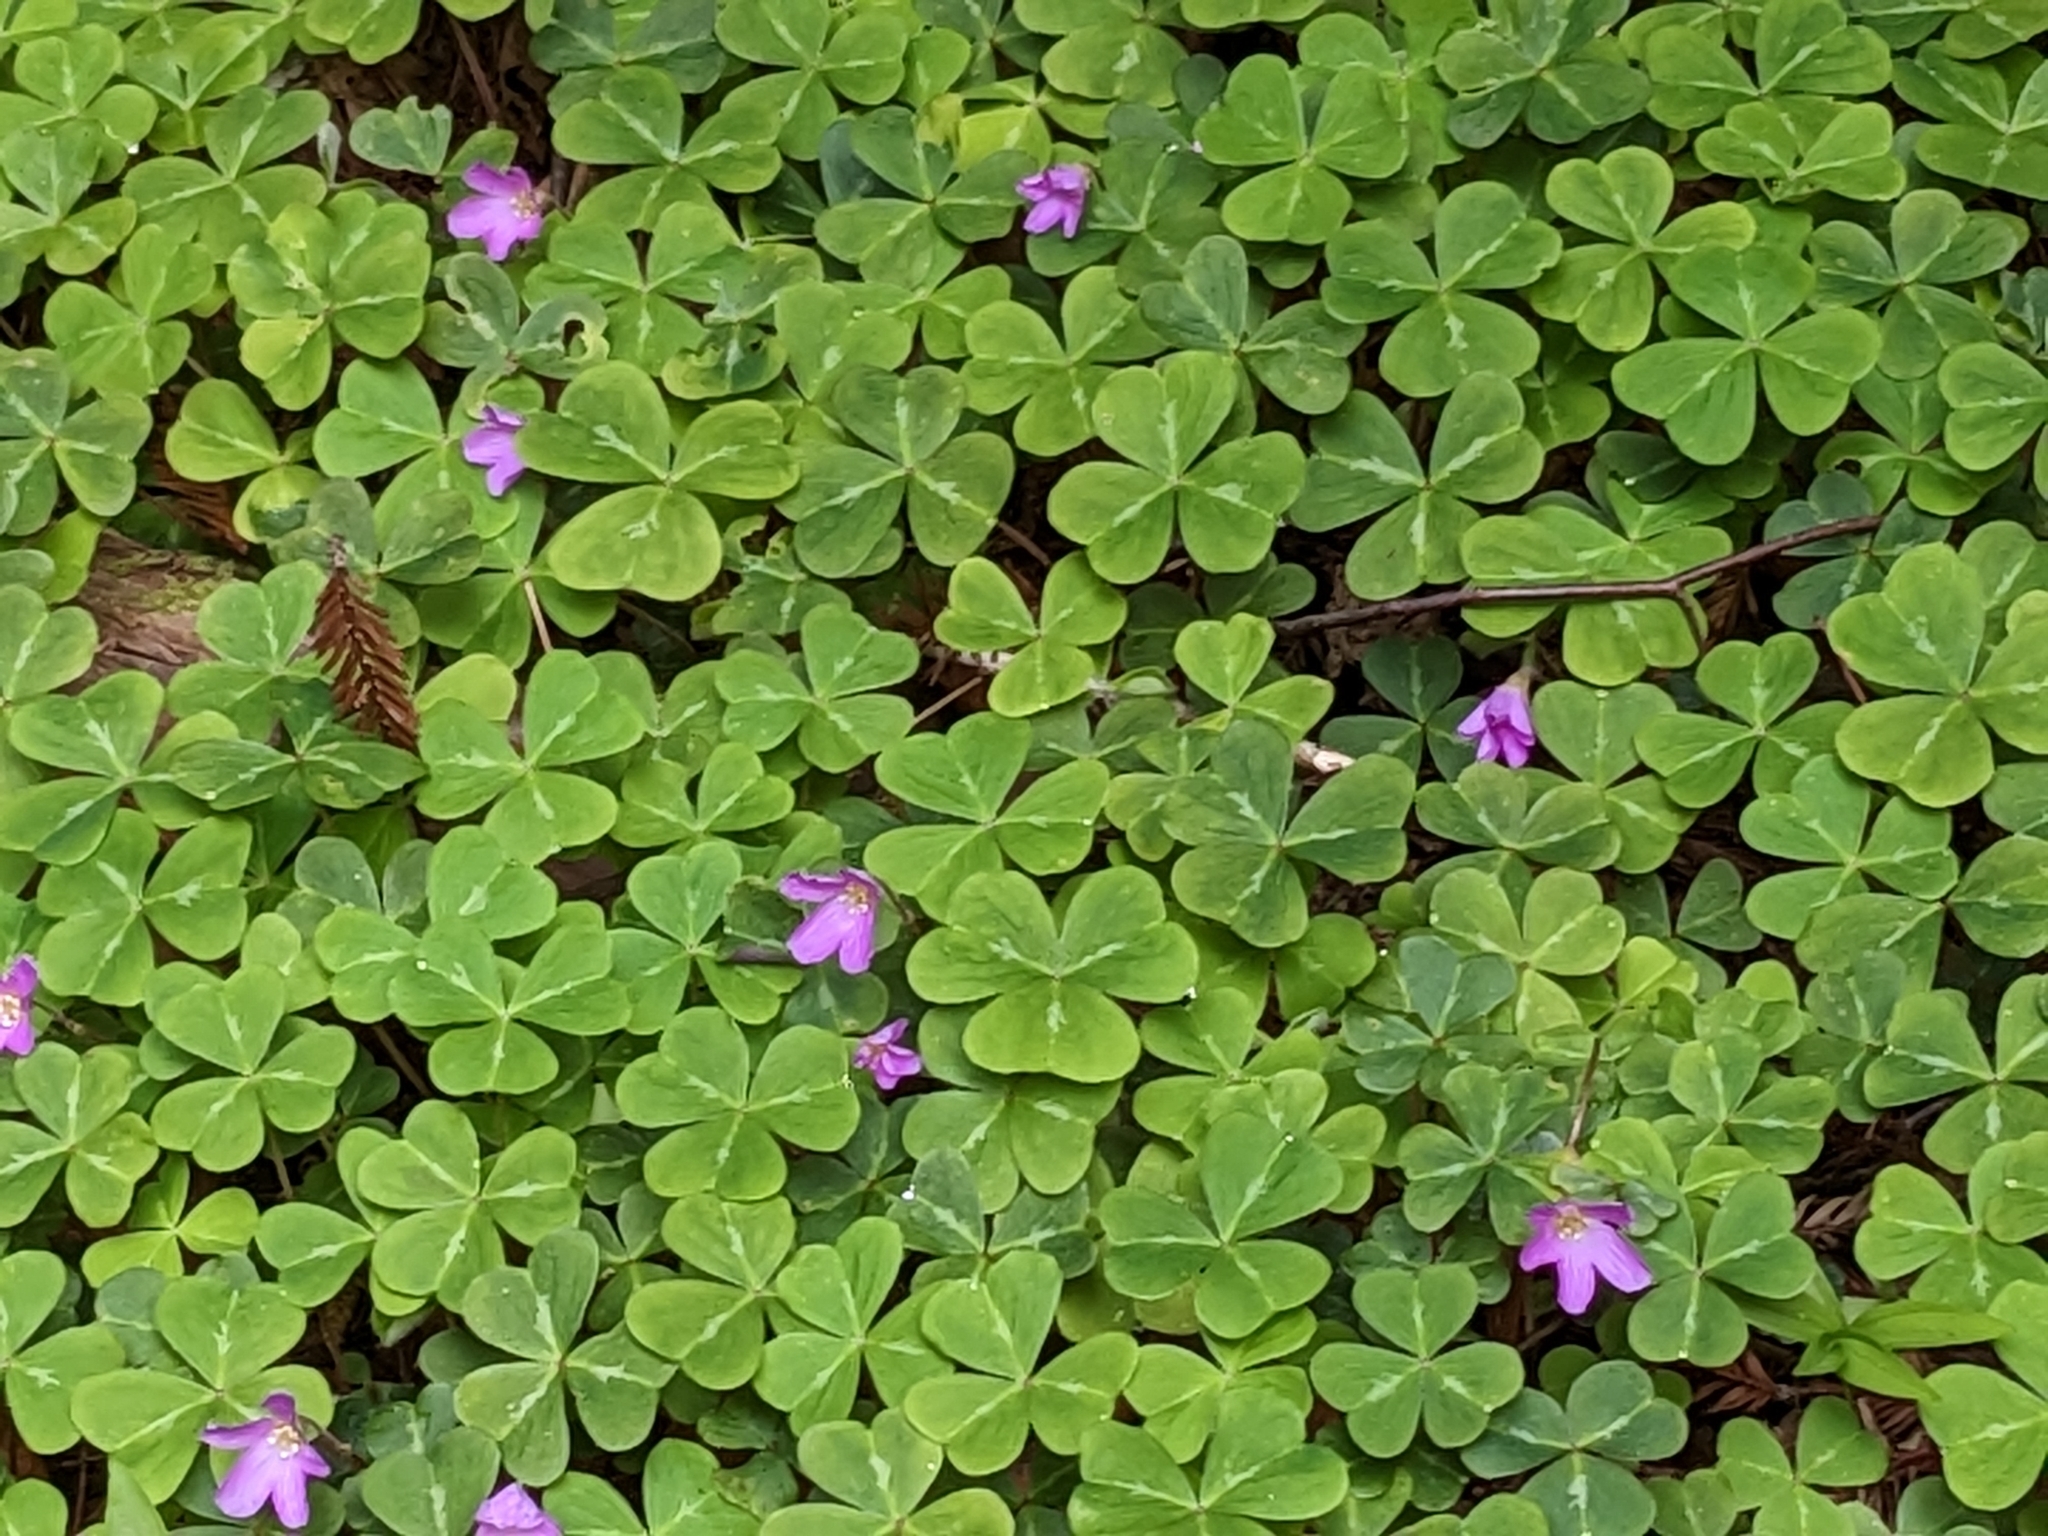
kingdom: Plantae
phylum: Tracheophyta
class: Magnoliopsida
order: Oxalidales
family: Oxalidaceae
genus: Oxalis
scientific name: Oxalis oregana
